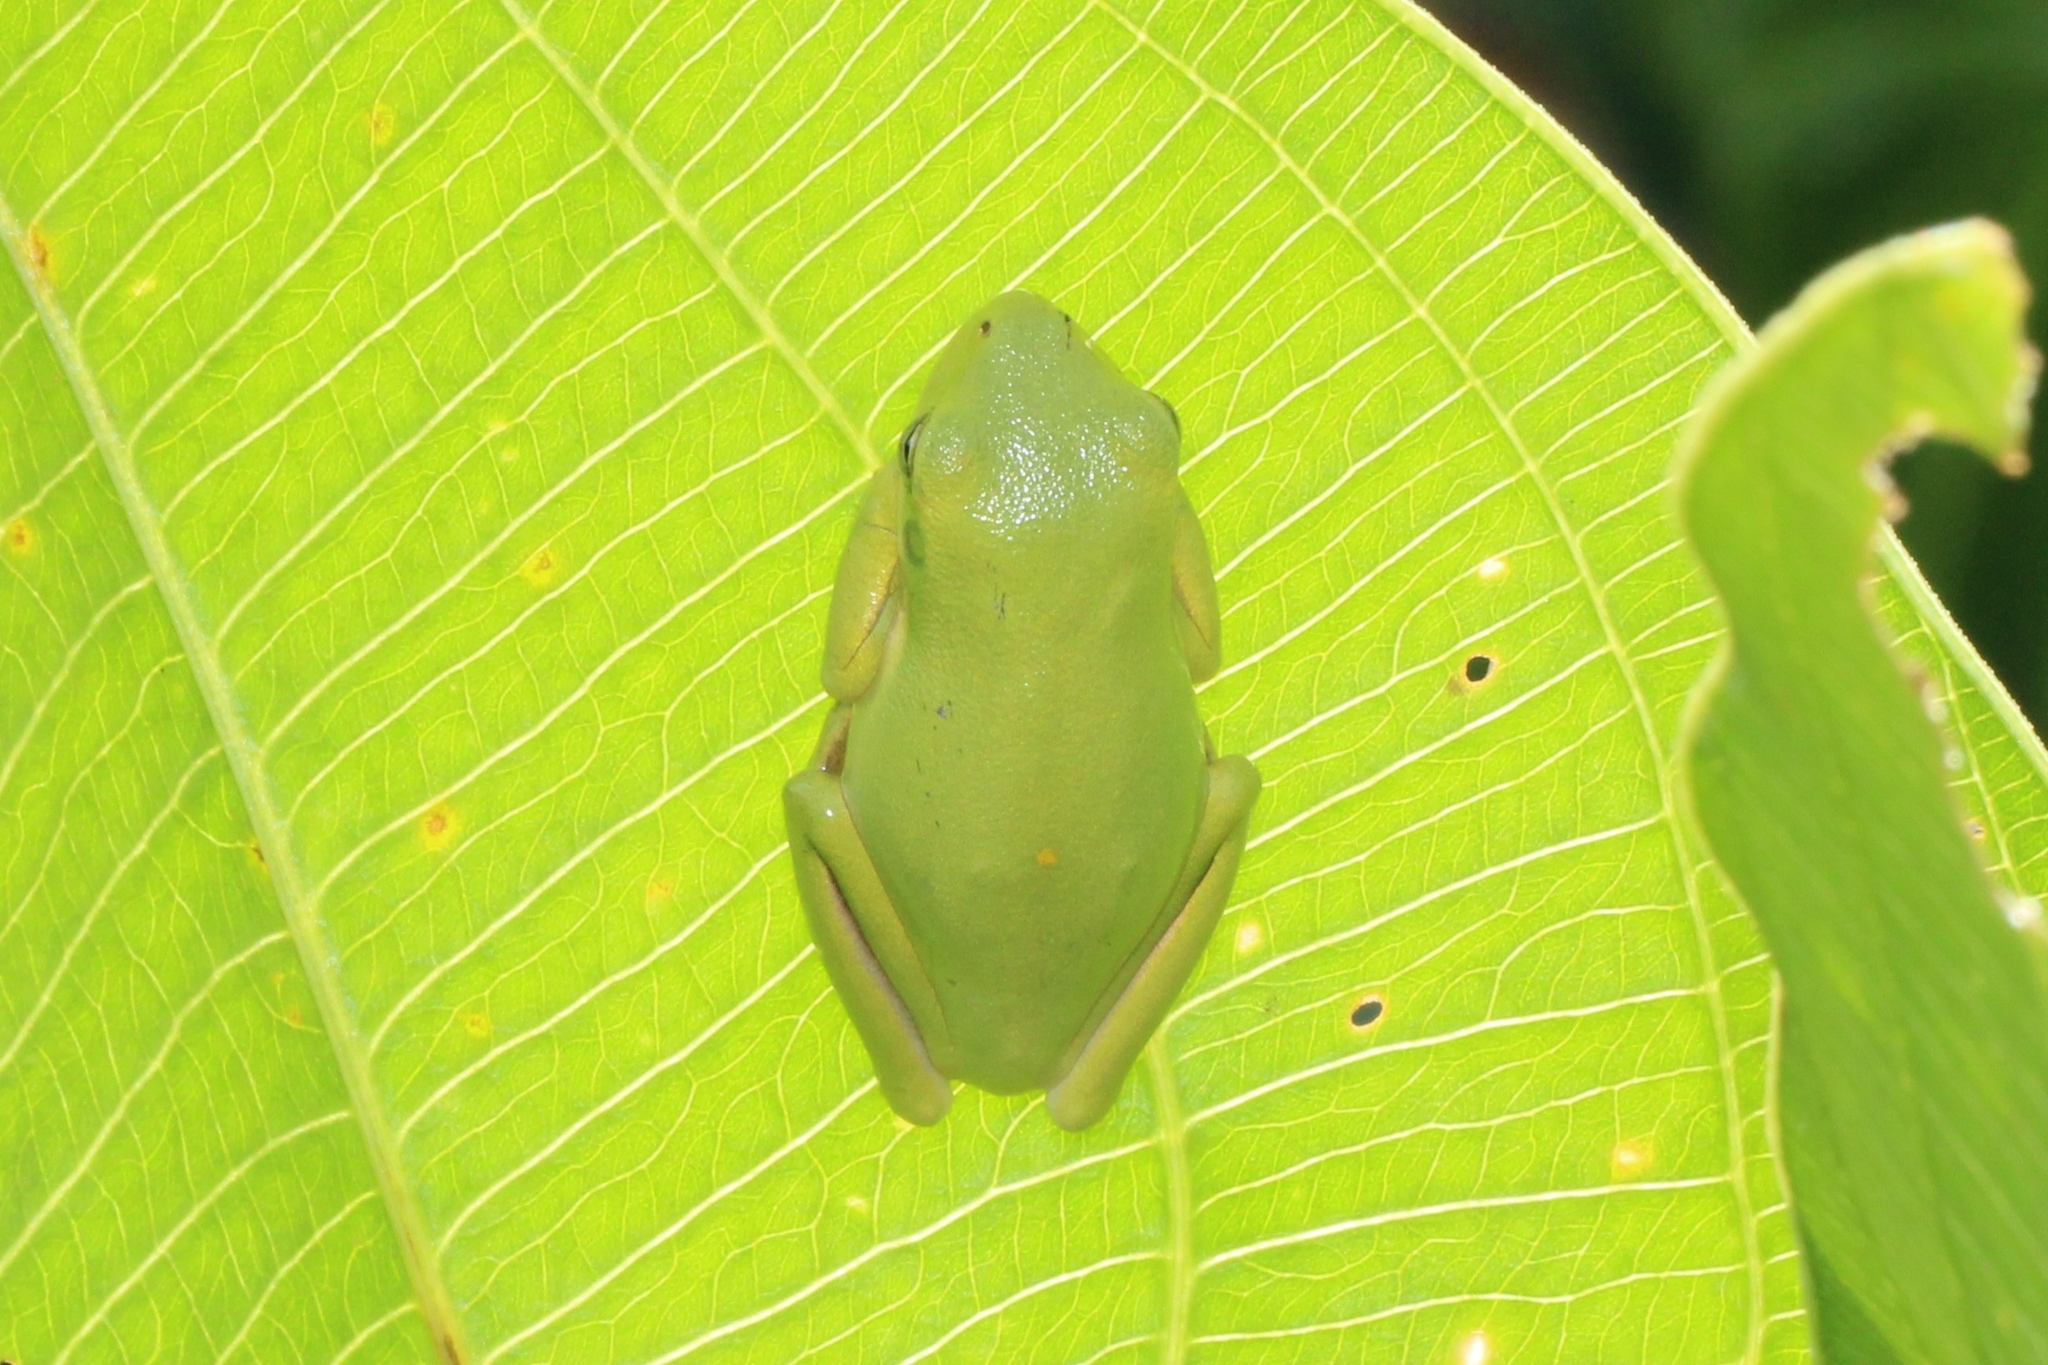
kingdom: Animalia
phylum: Chordata
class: Amphibia
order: Anura
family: Hylidae
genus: Dryophytes
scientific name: Dryophytes cinereus
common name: Green treefrog
